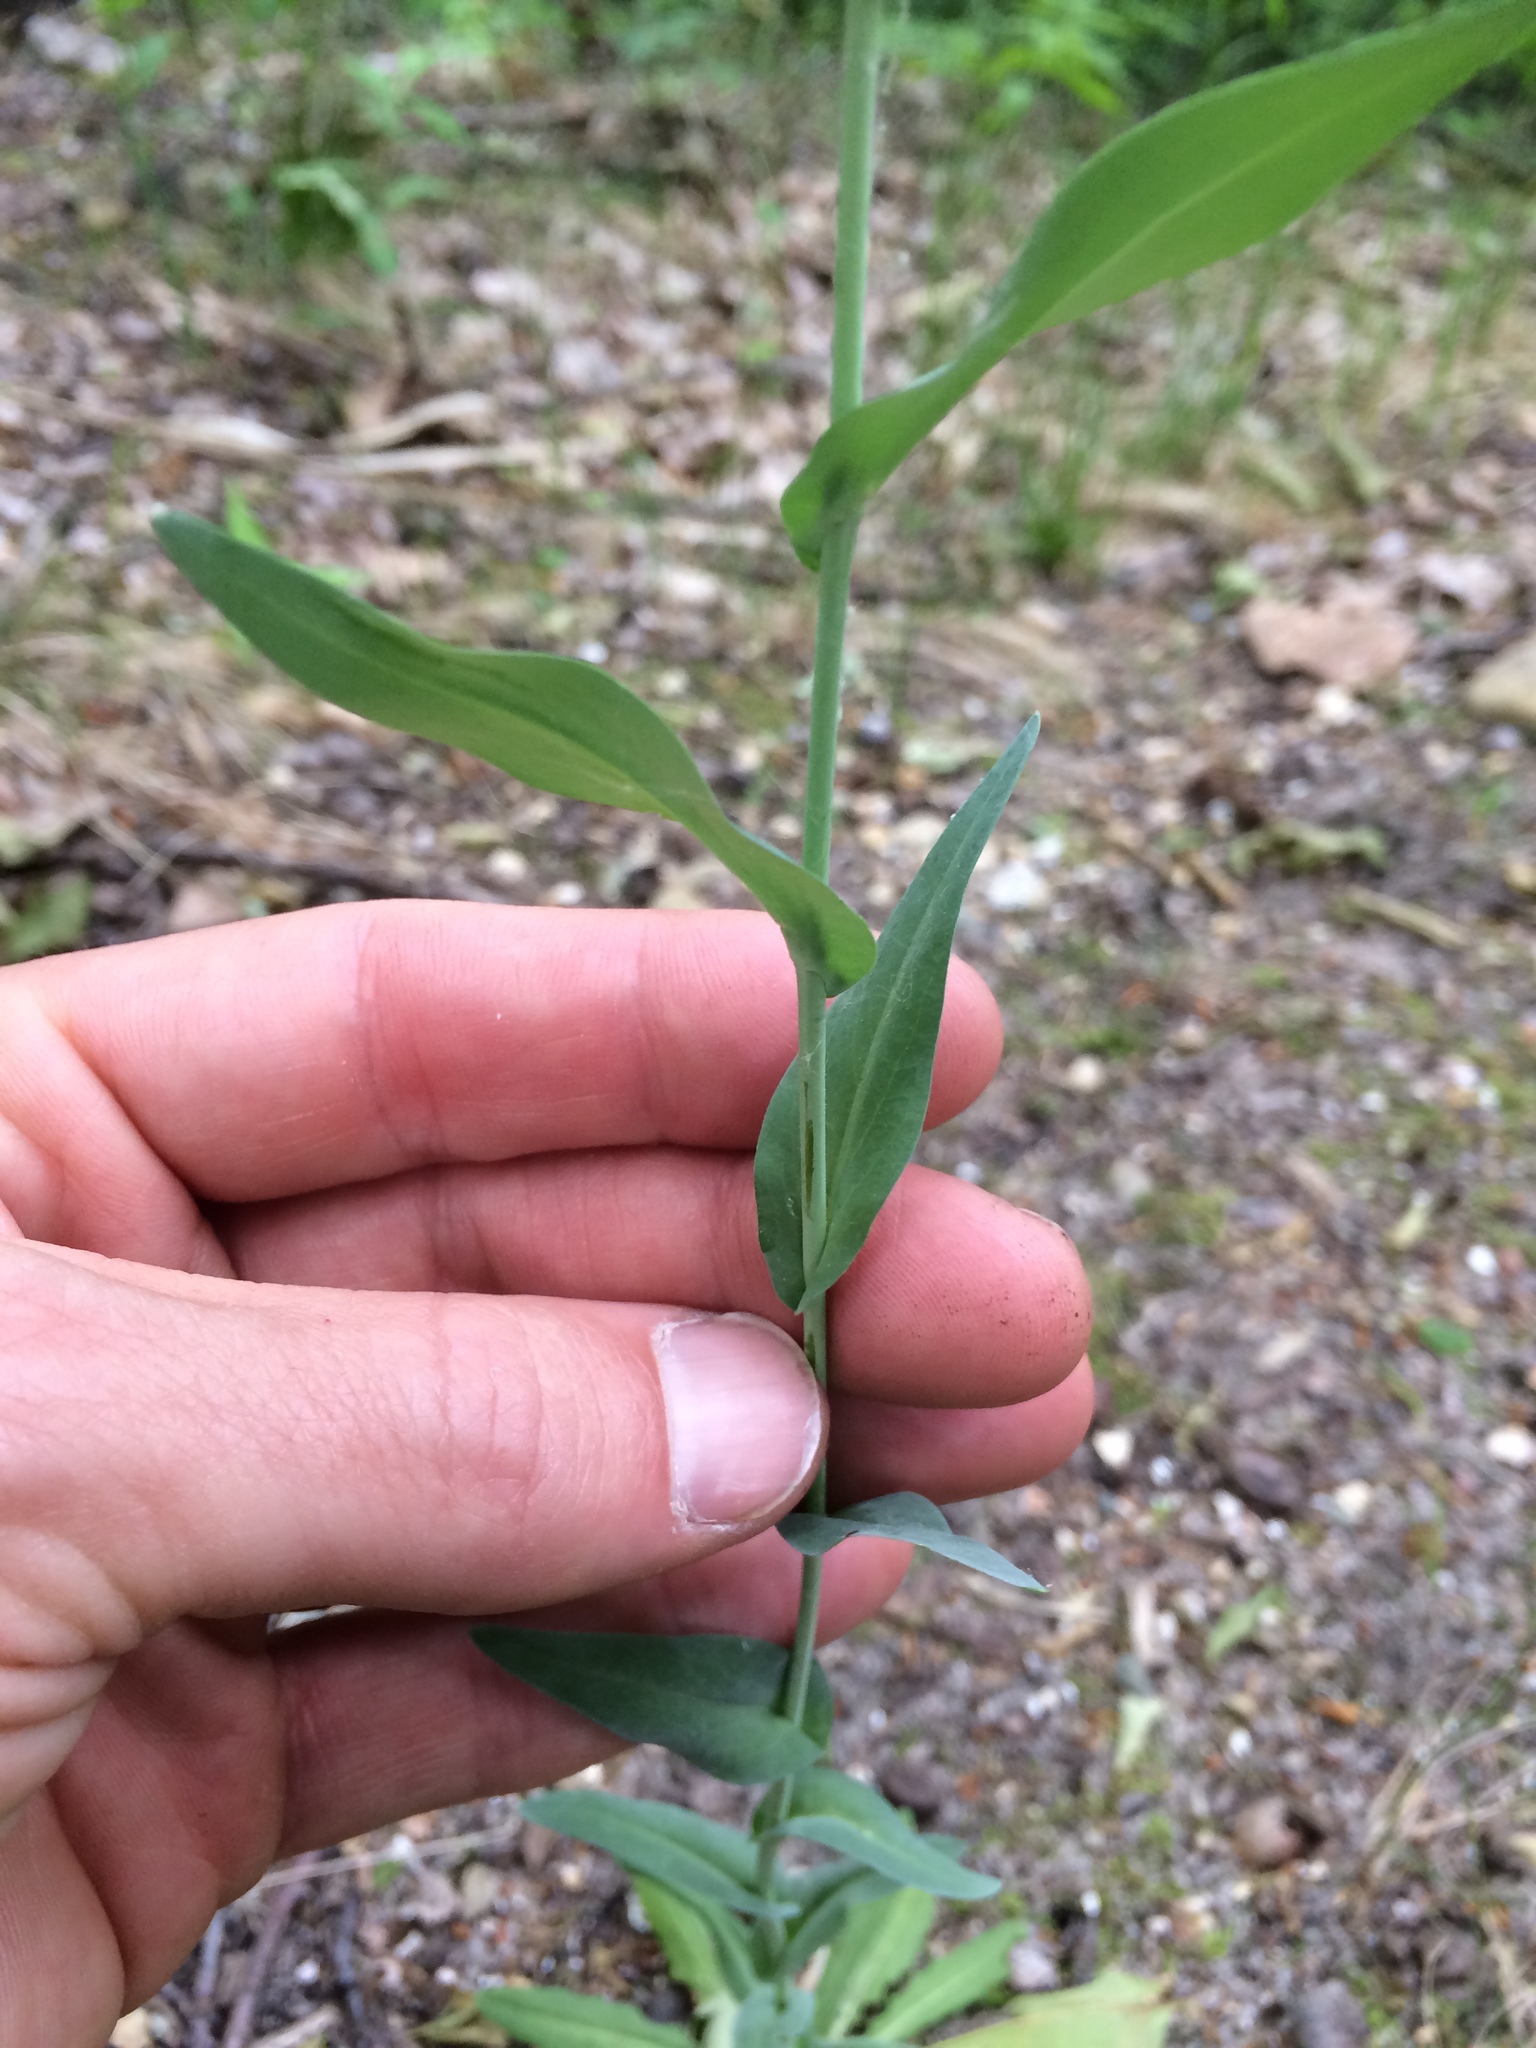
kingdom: Plantae
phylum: Tracheophyta
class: Magnoliopsida
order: Brassicales
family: Brassicaceae
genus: Boechera
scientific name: Boechera stricta
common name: Canadian rockcress
